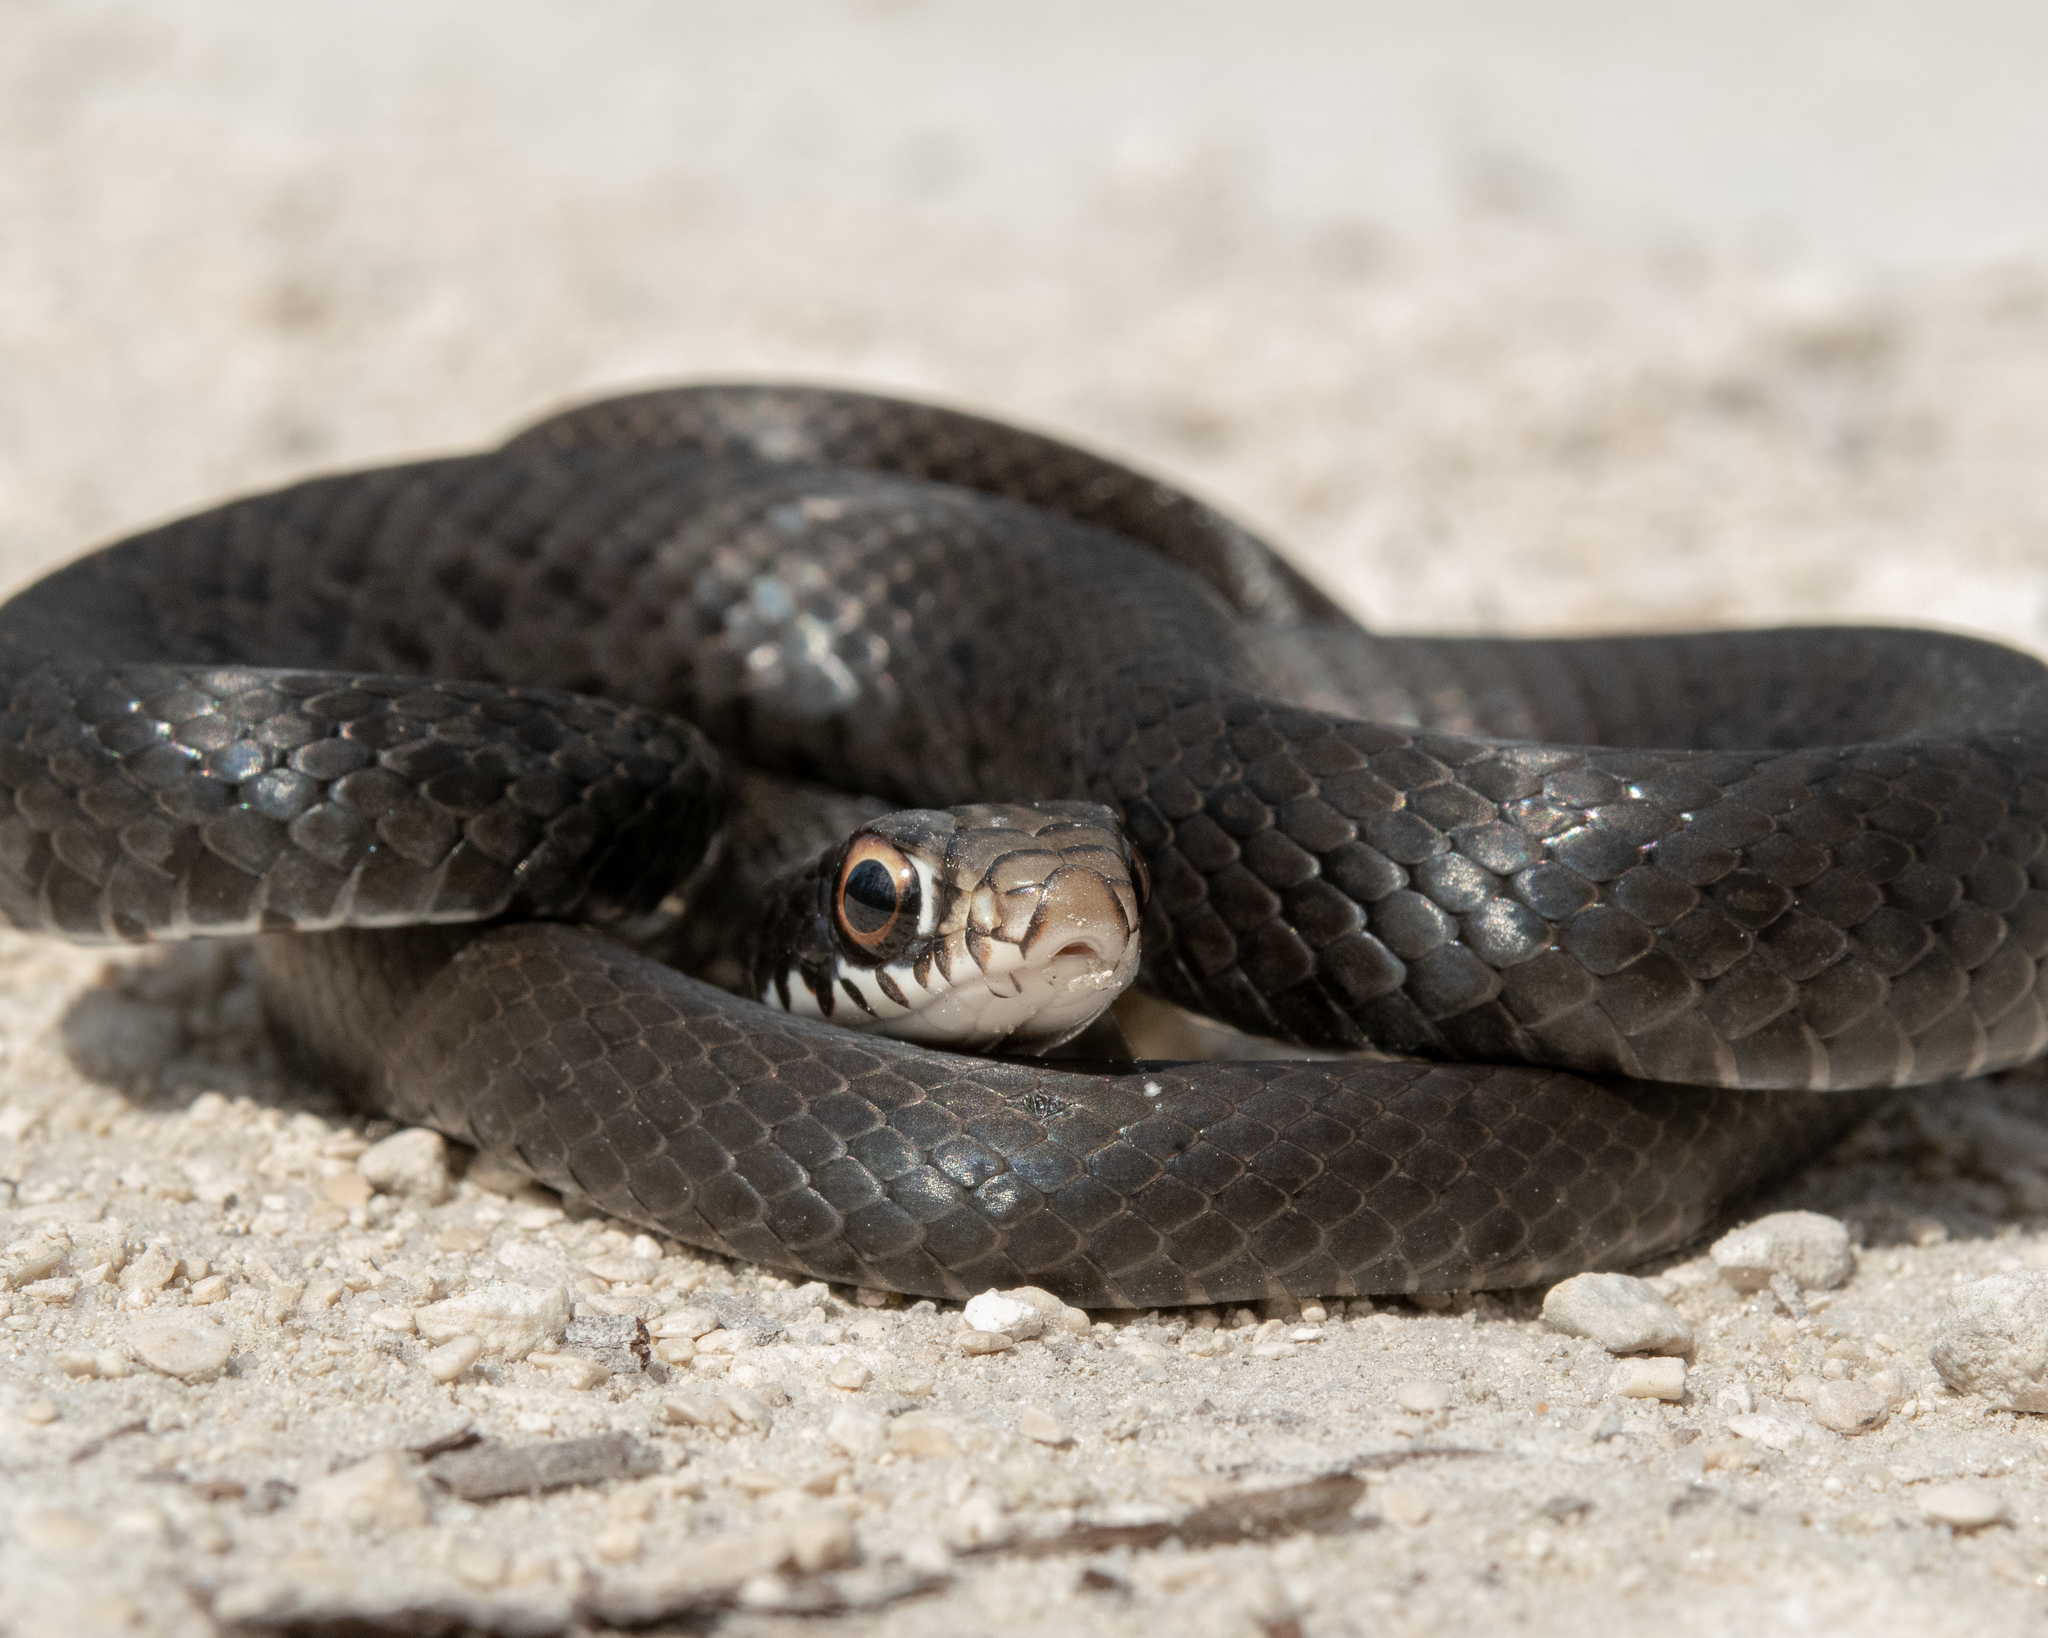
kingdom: Animalia
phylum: Chordata
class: Squamata
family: Colubridae
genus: Coluber
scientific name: Coluber constrictor
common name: Eastern racer
